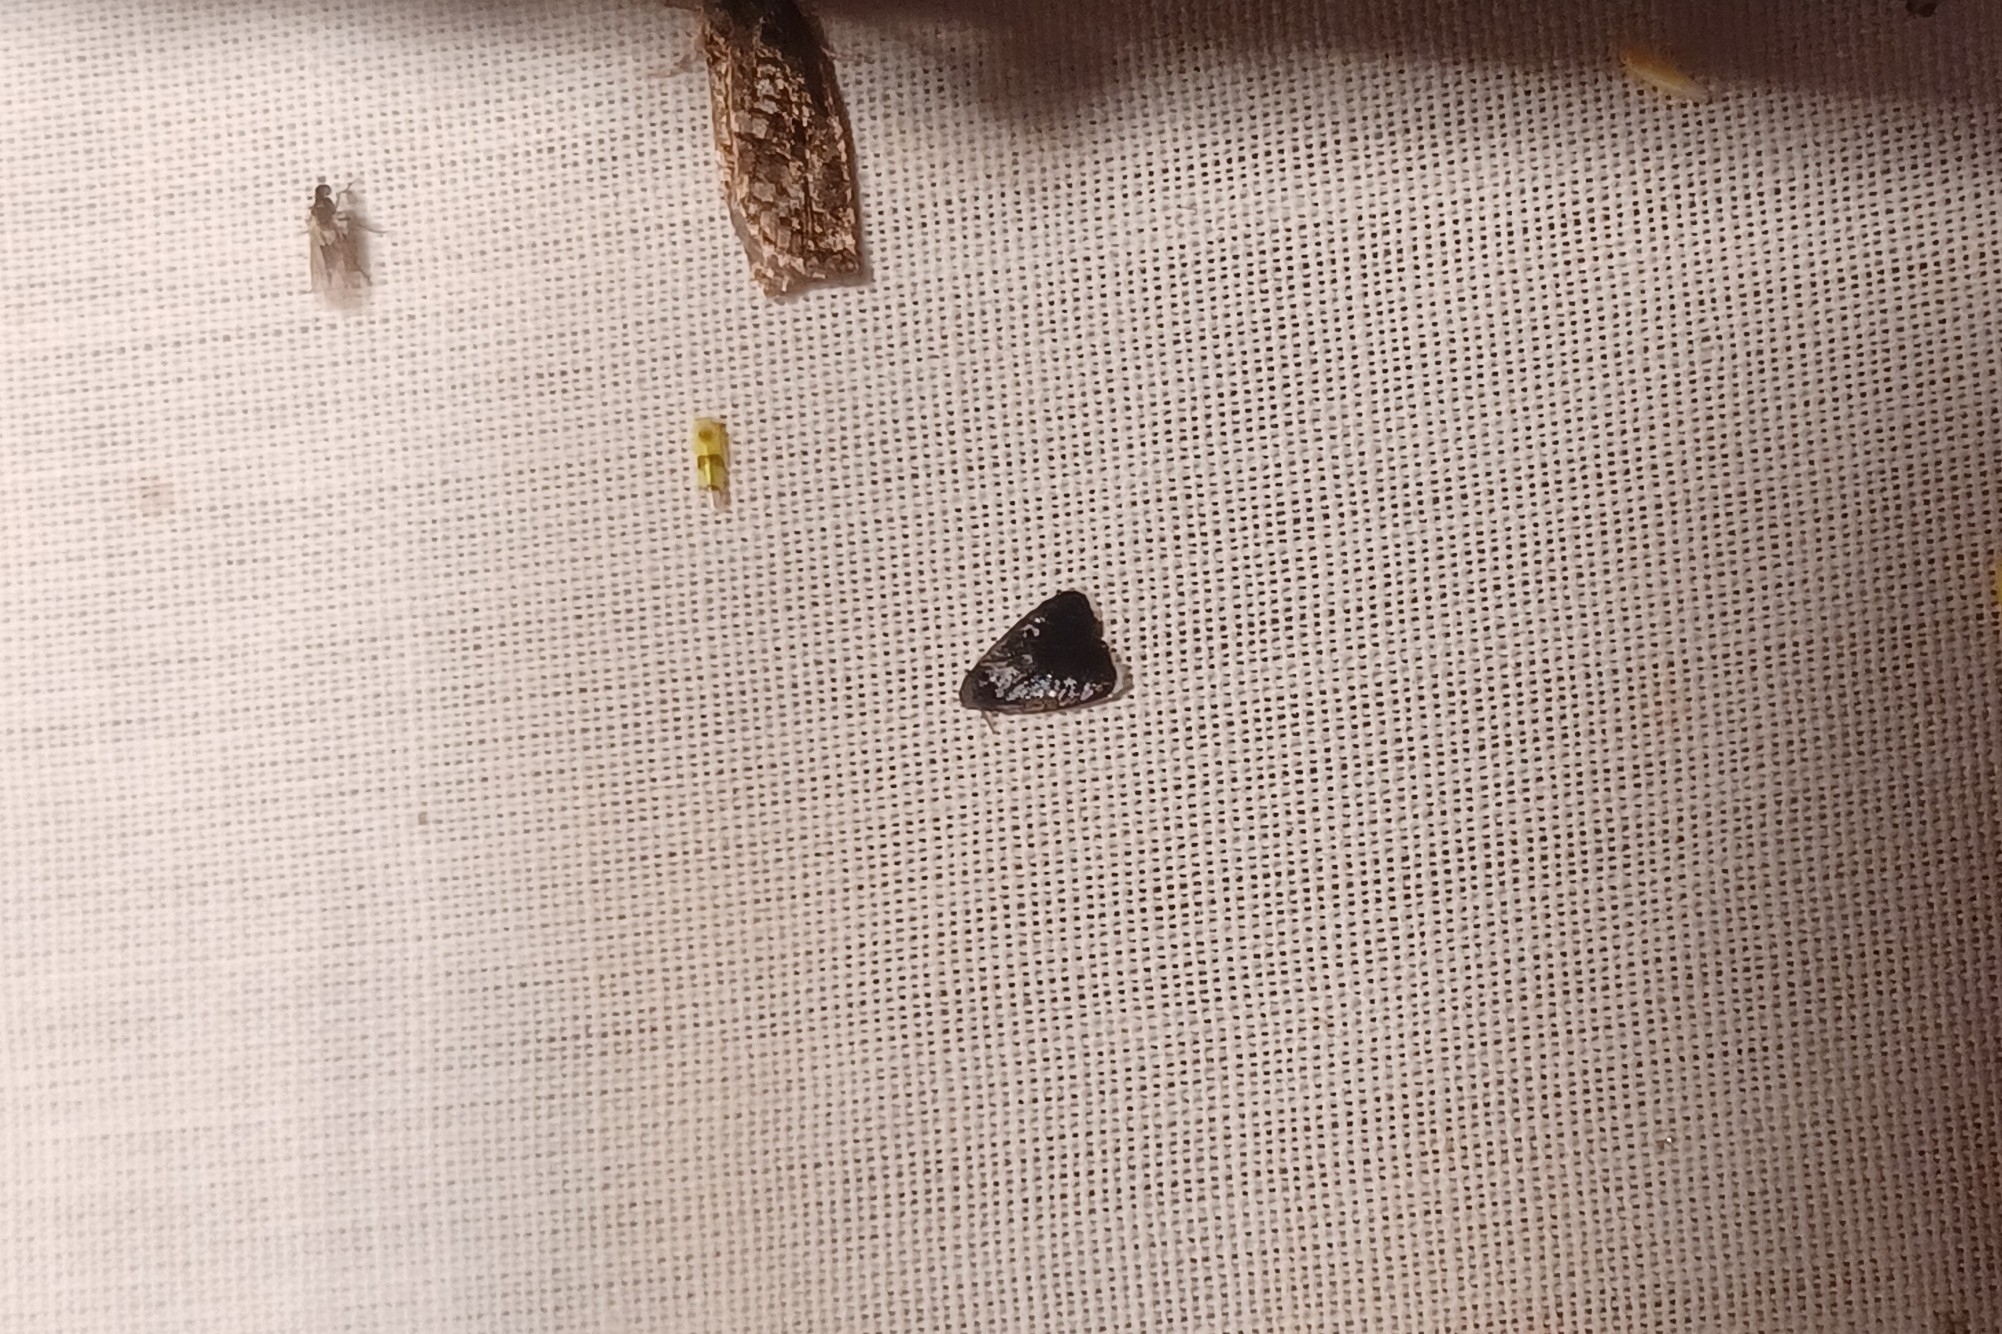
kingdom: Animalia
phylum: Arthropoda
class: Insecta
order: Lepidoptera
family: Depressariidae
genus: Menesta
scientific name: Menesta tortriciformella
